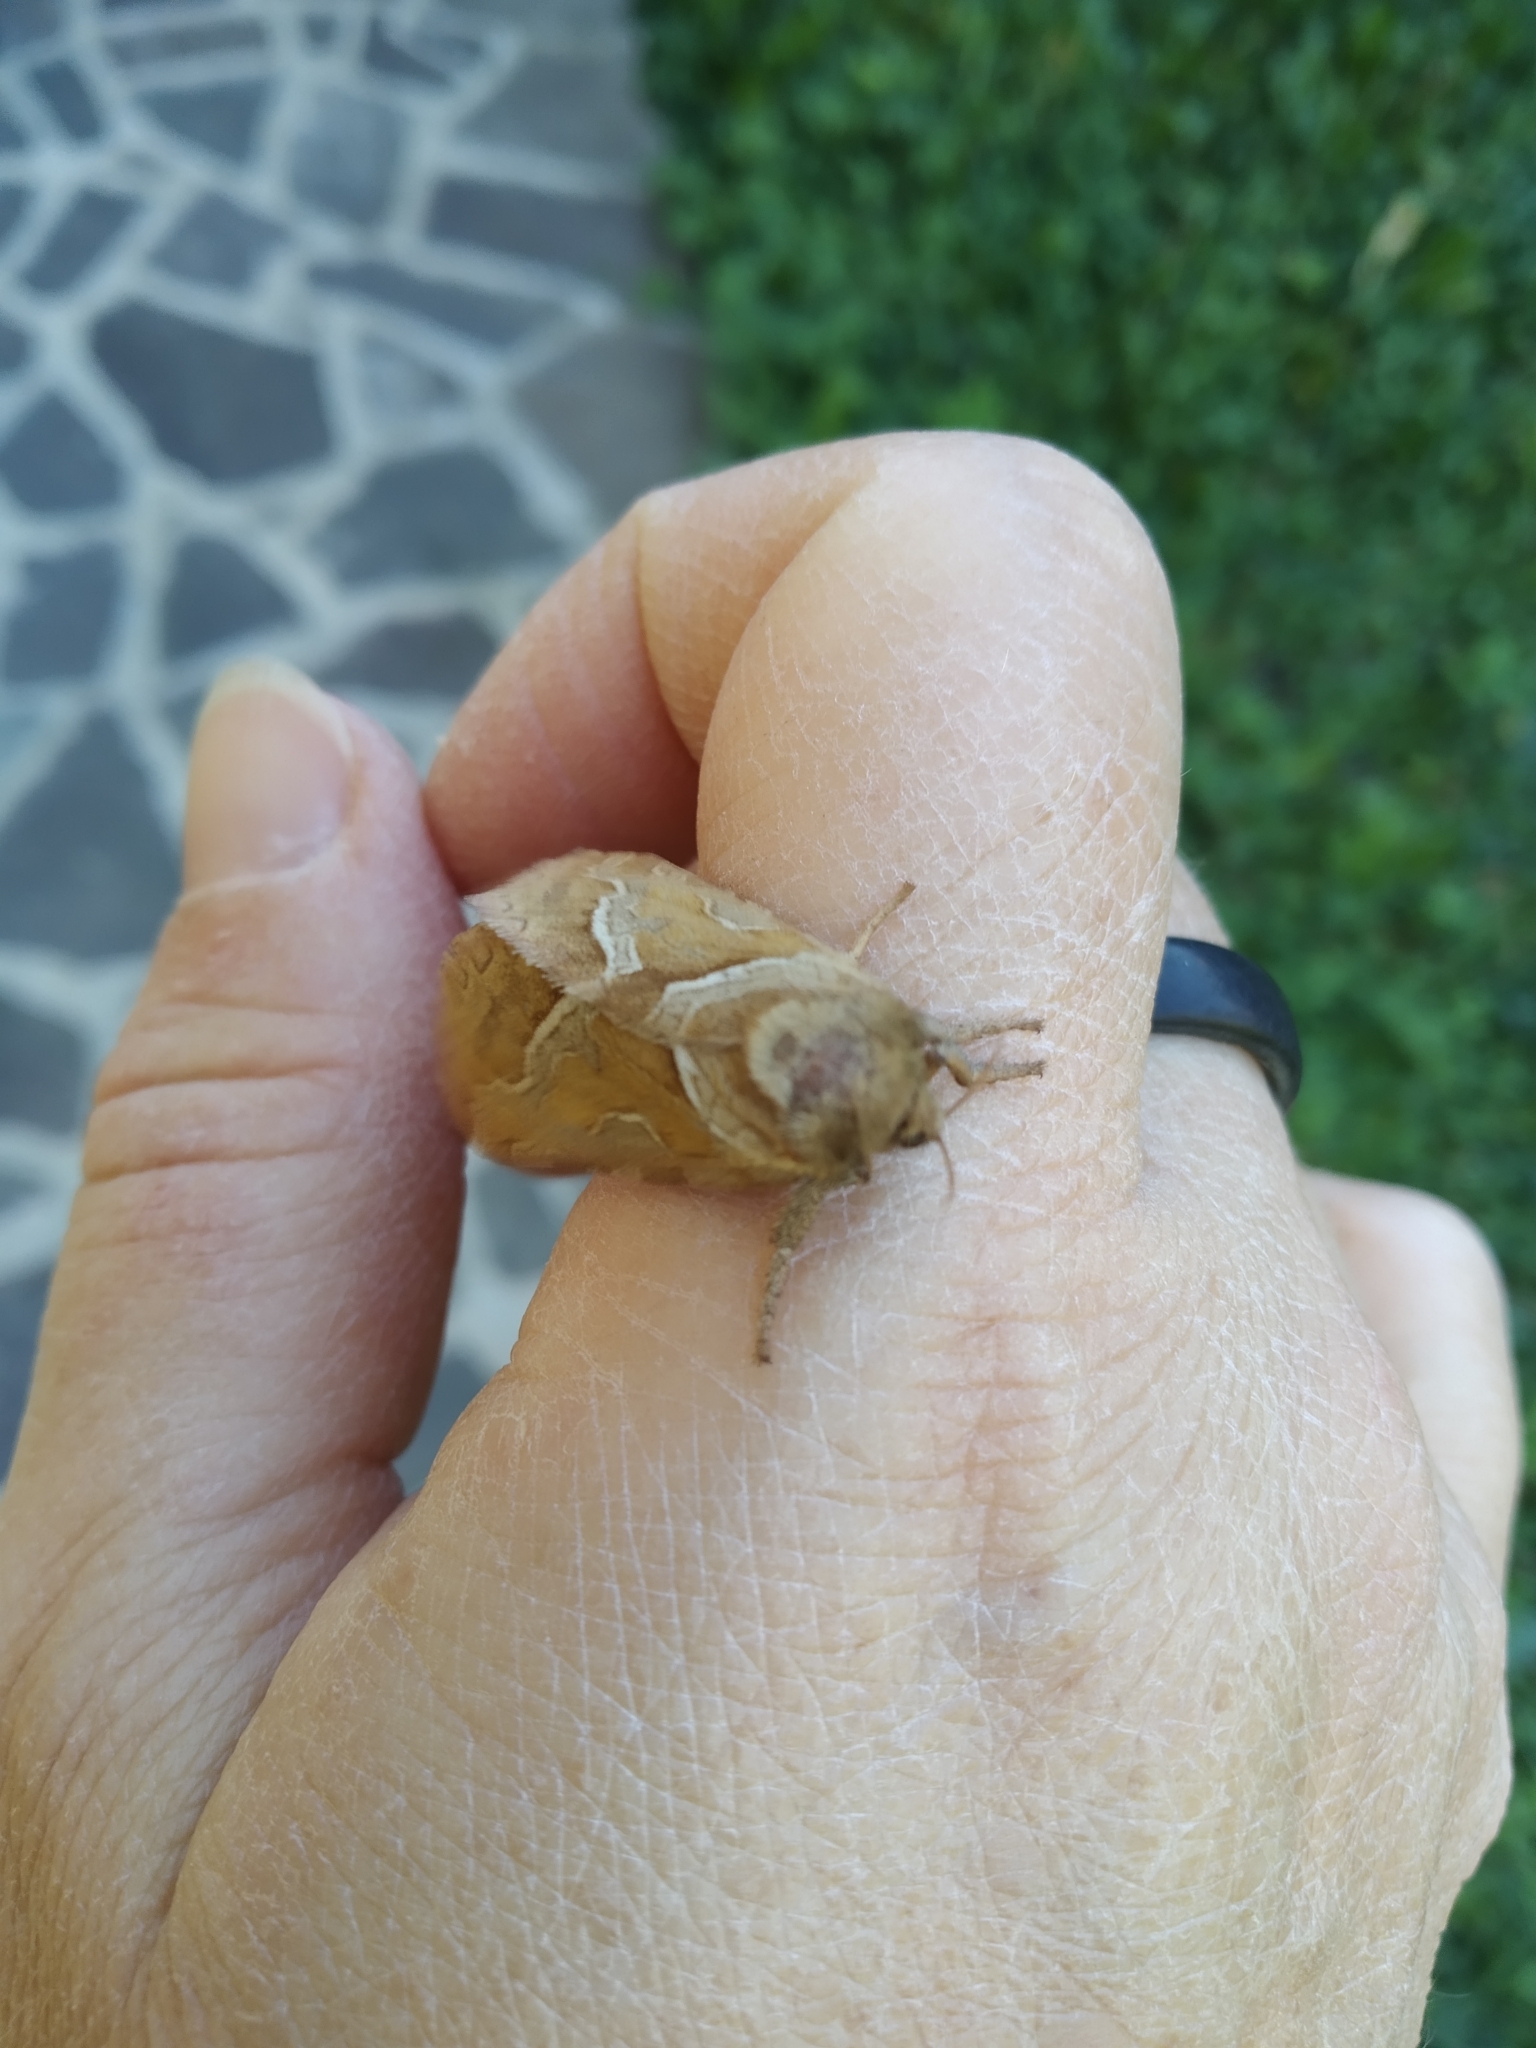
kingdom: Animalia
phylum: Arthropoda
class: Insecta
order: Lepidoptera
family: Hepialidae
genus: Triodia
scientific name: Triodia sylvina
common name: Orange swift
